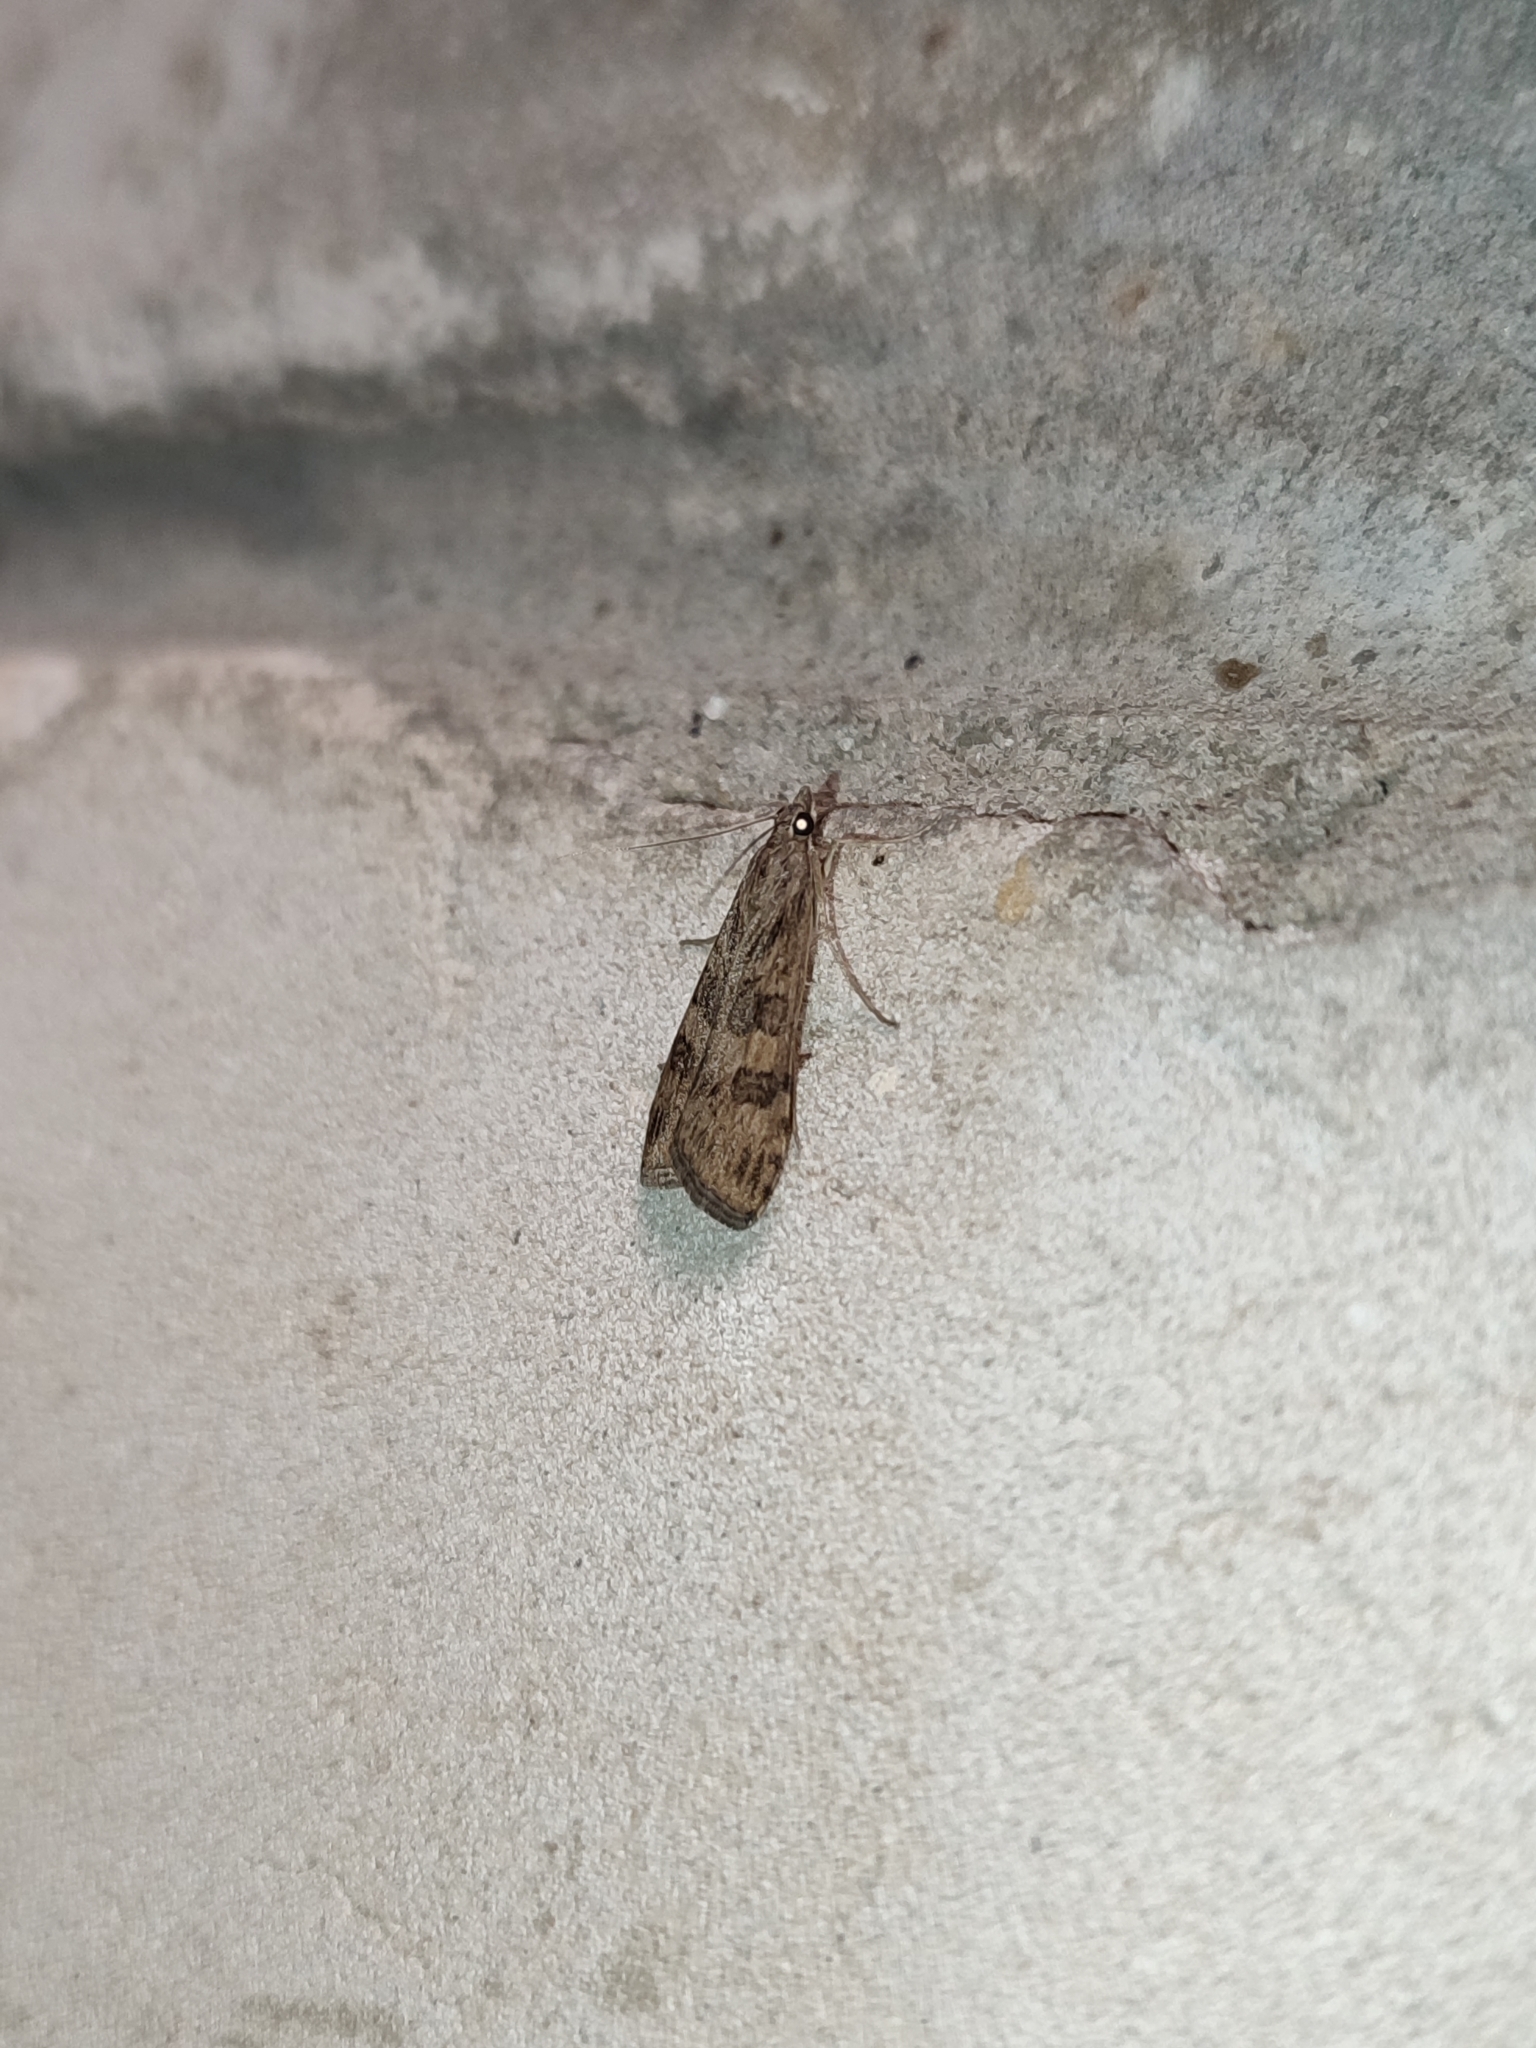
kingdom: Animalia
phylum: Arthropoda
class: Insecta
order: Lepidoptera
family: Crambidae
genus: Nomophila
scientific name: Nomophila noctuella
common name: Rush veneer
